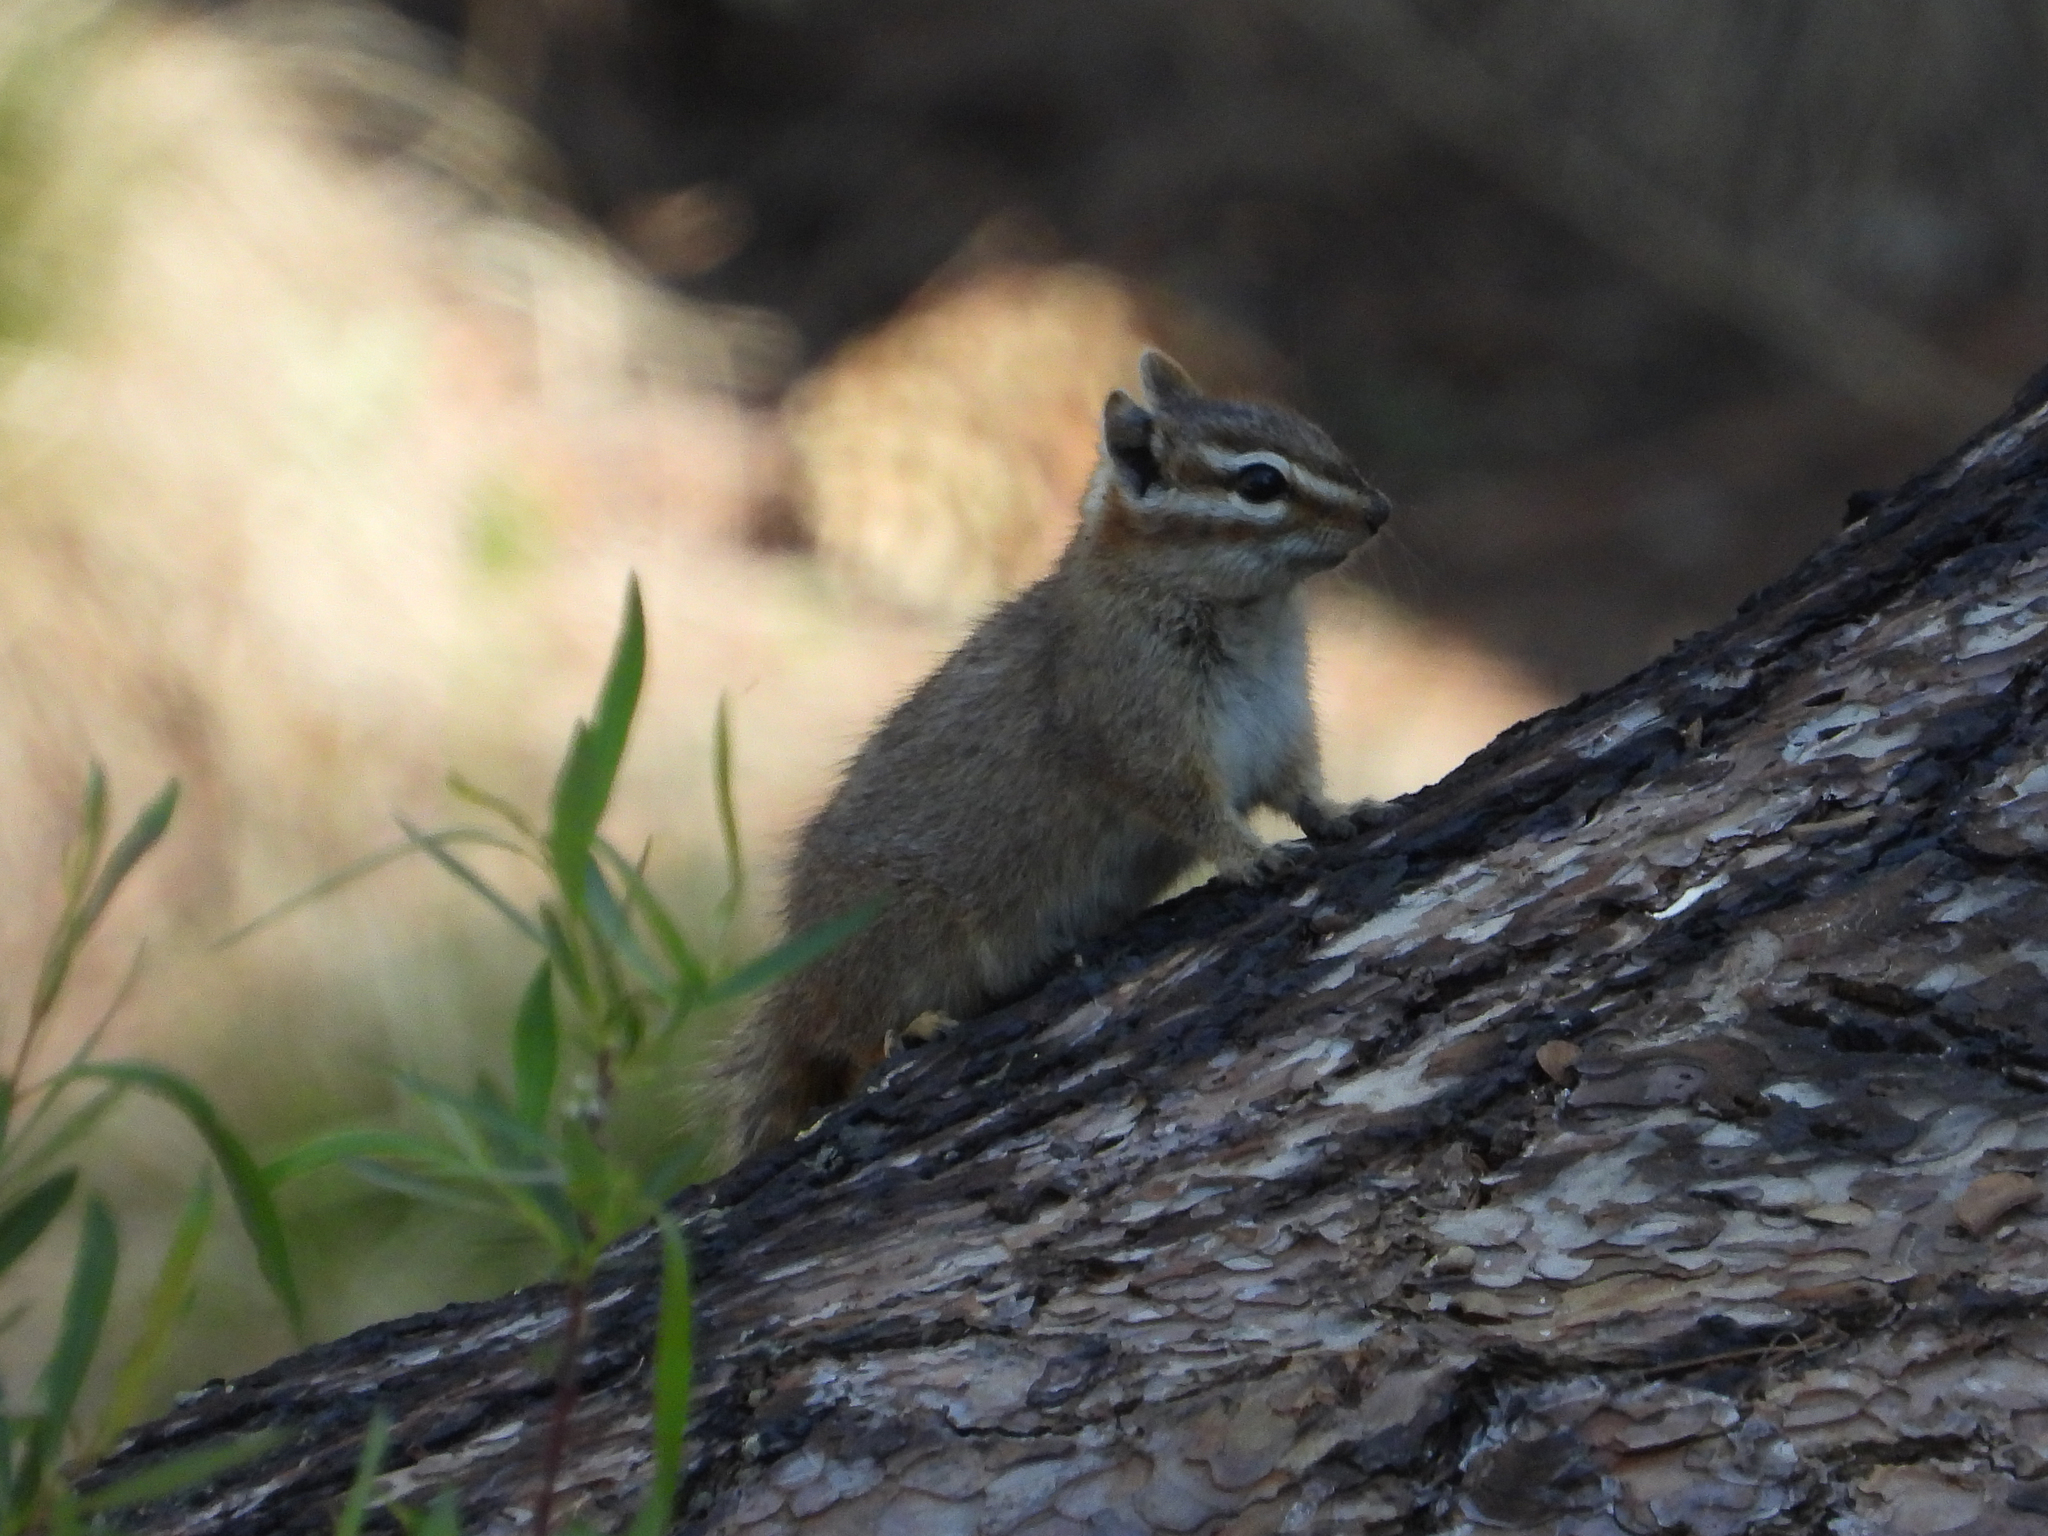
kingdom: Animalia
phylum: Chordata
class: Mammalia
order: Rodentia
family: Sciuridae
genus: Tamias
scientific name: Tamias dorsalis
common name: Cliff chipmunk
